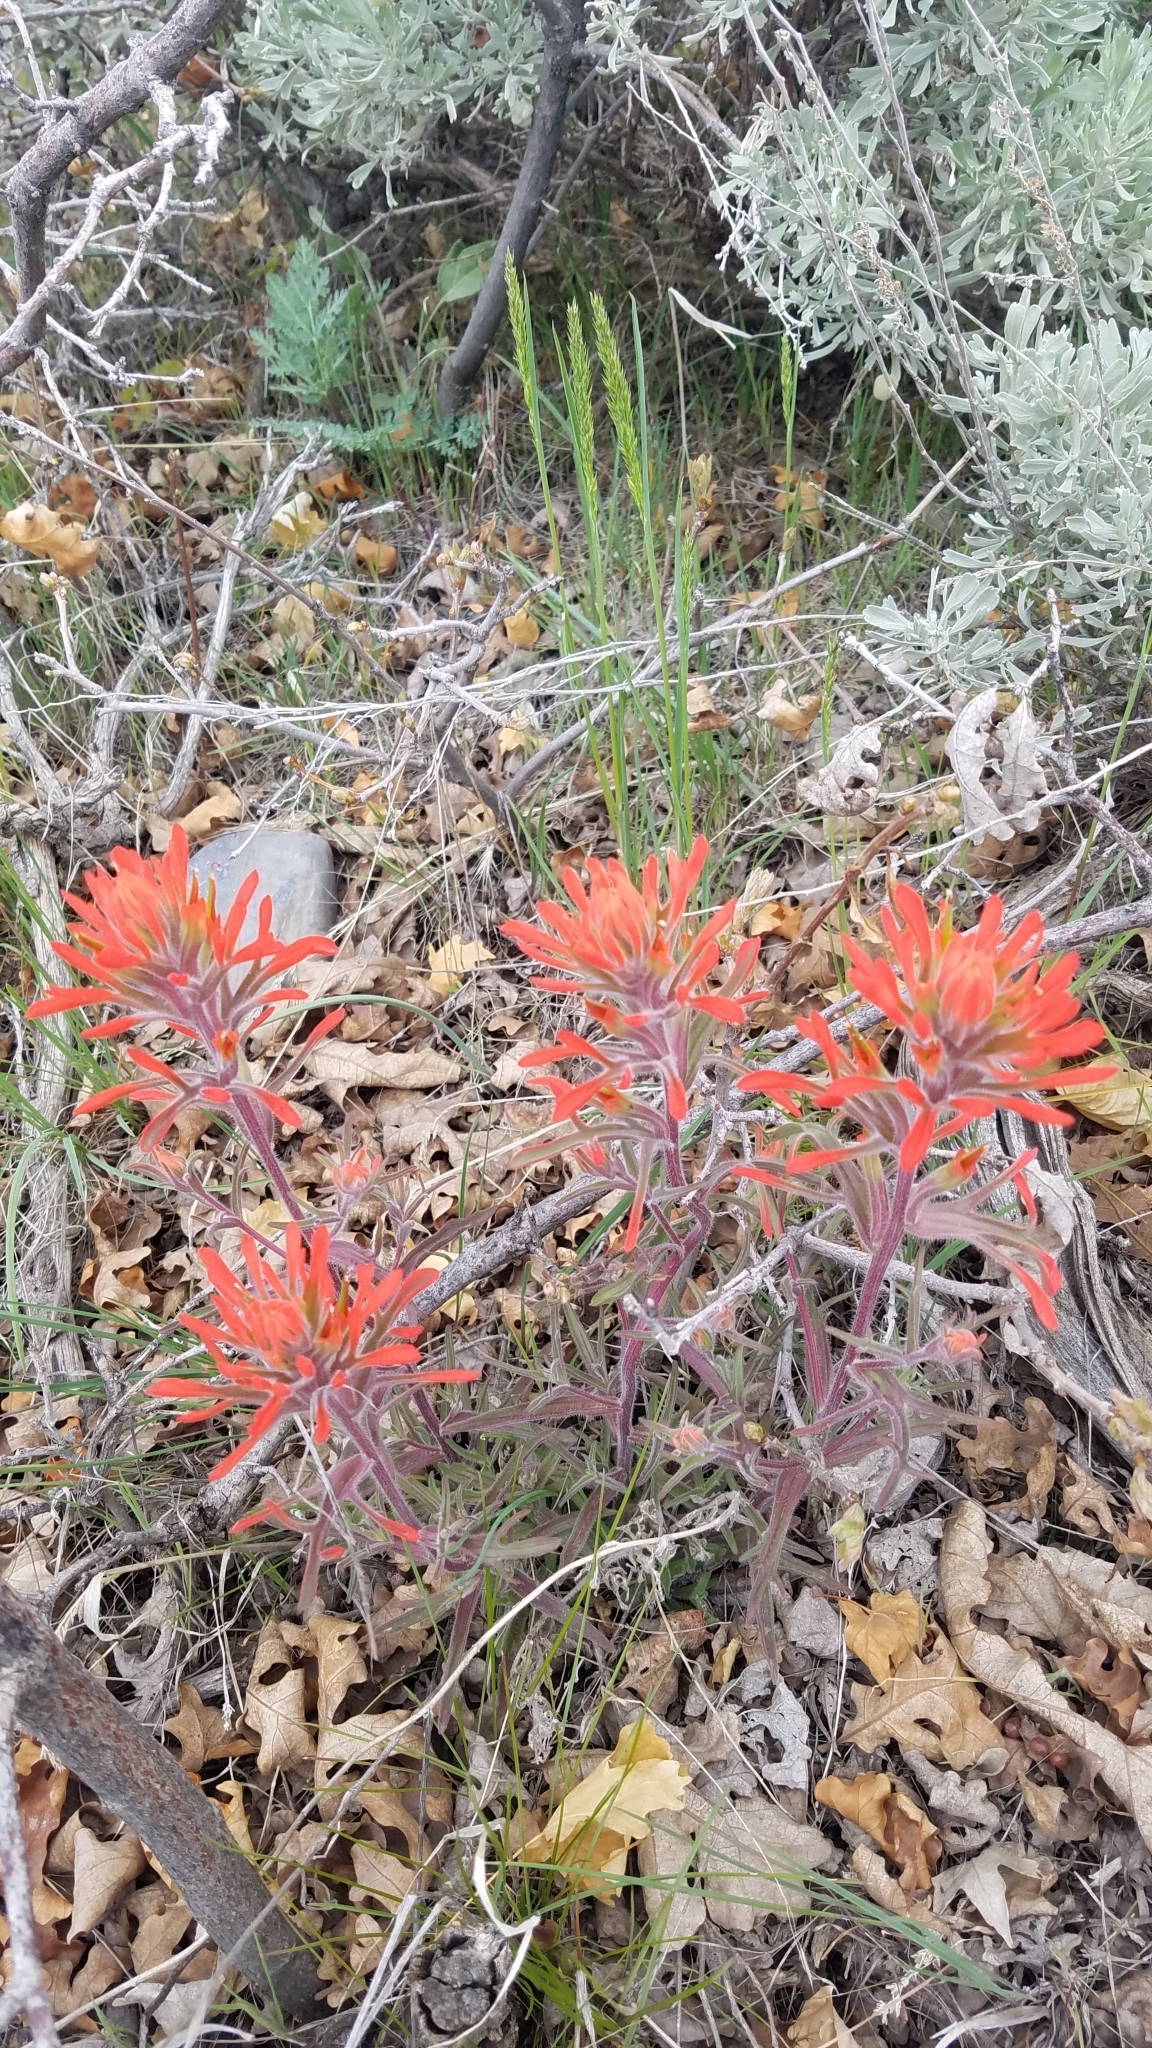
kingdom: Plantae
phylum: Tracheophyta
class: Magnoliopsida
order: Lamiales
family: Orobanchaceae
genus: Castilleja
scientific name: Castilleja chromosa
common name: Desert paintbrush
